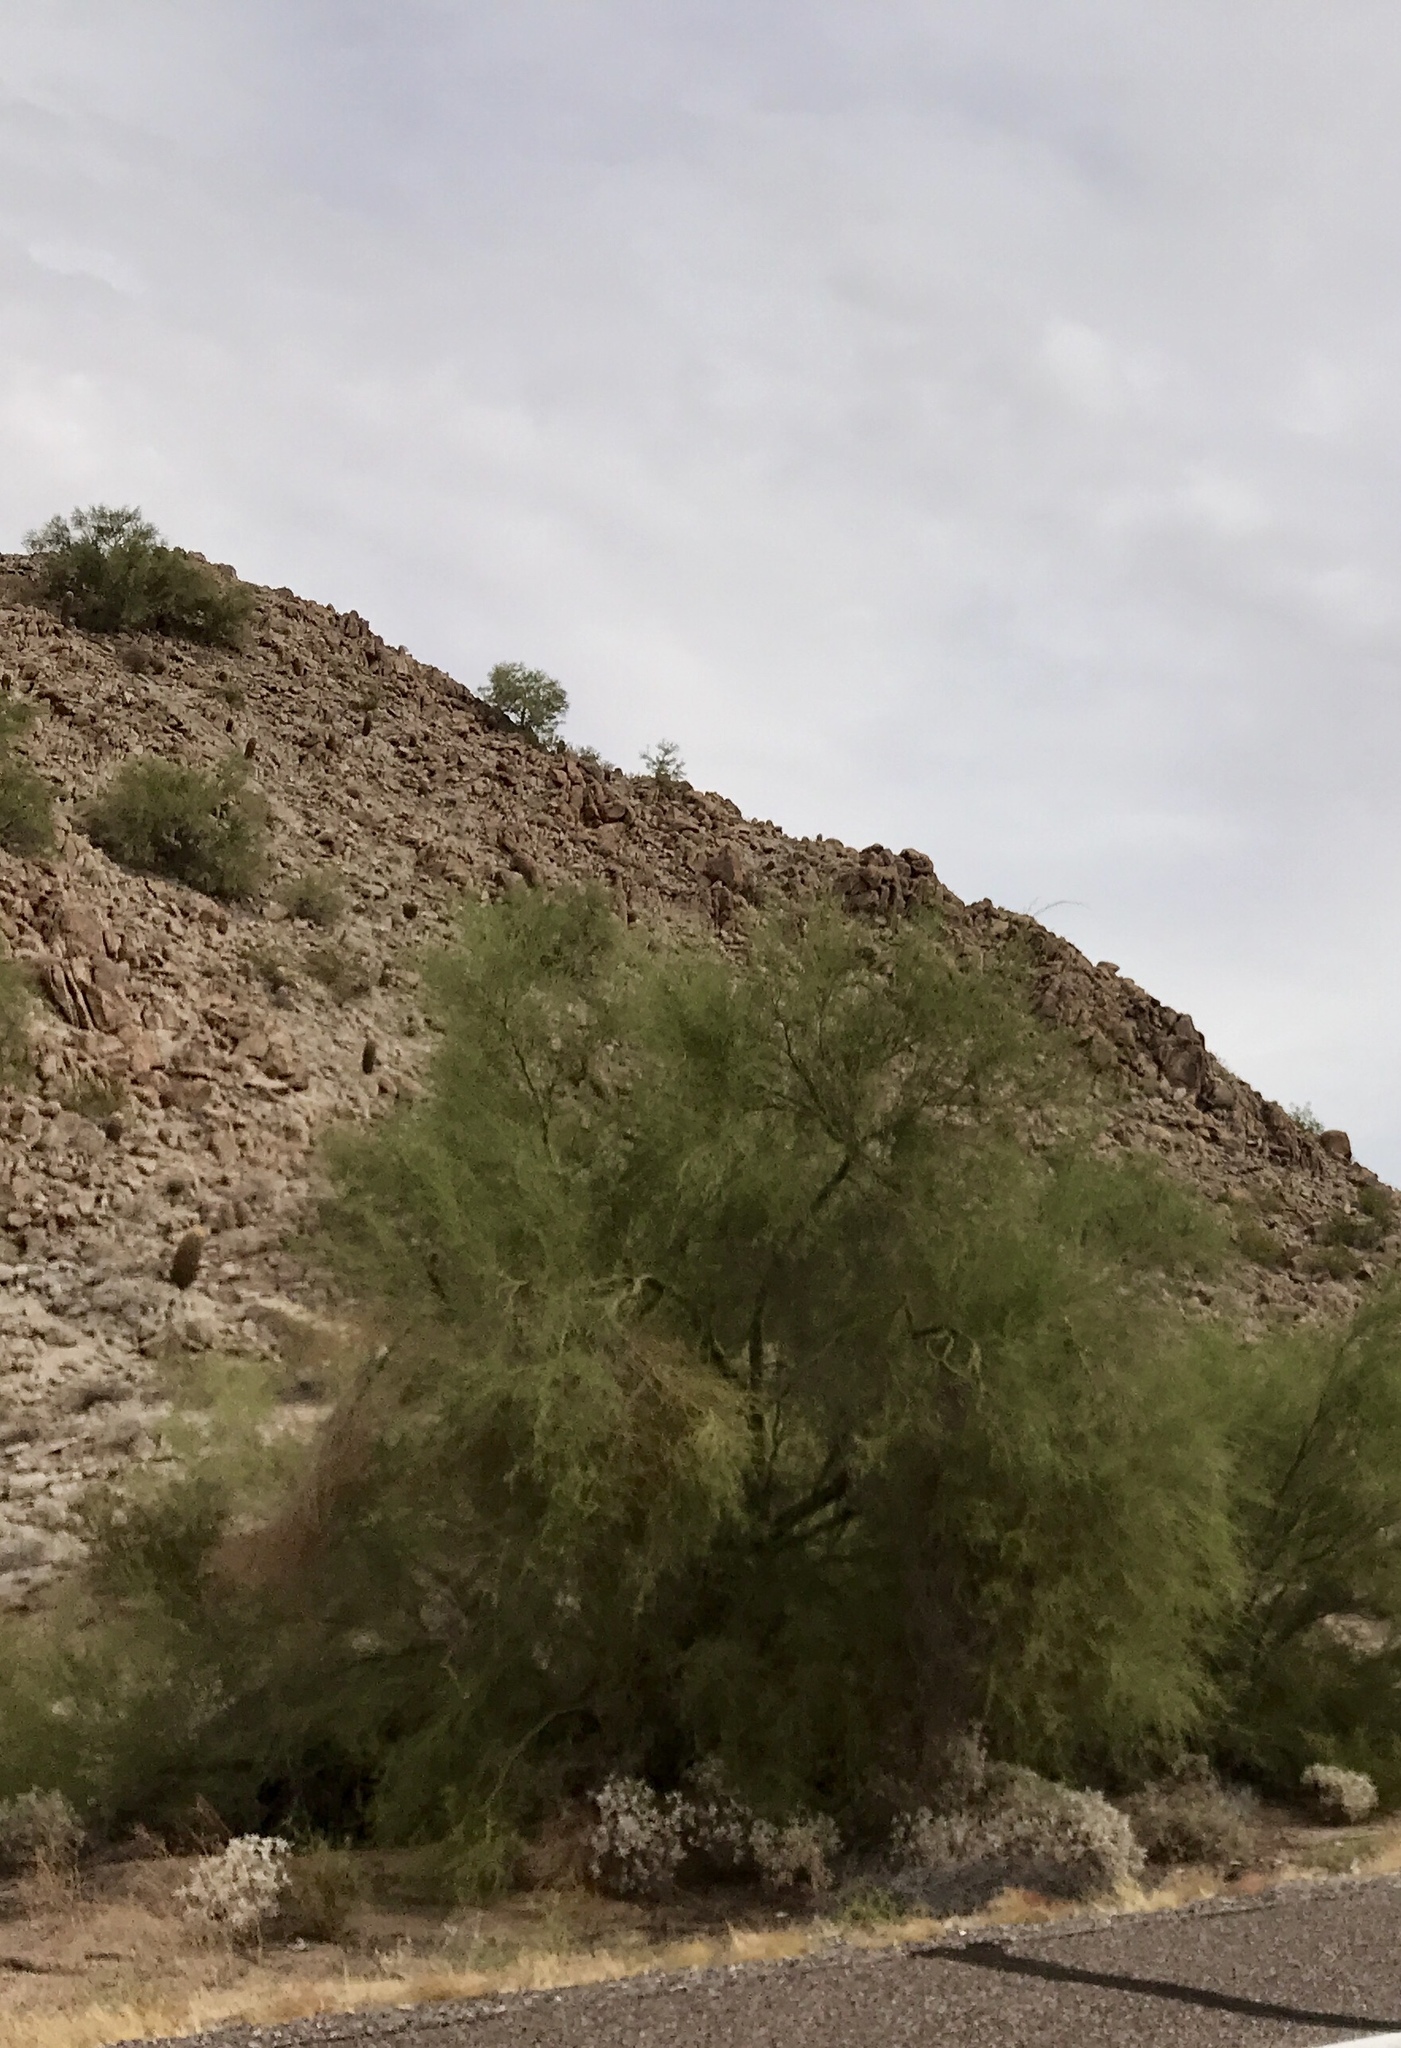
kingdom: Plantae
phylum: Tracheophyta
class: Magnoliopsida
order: Fabales
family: Fabaceae
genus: Parkinsonia
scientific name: Parkinsonia florida
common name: Blue paloverde
